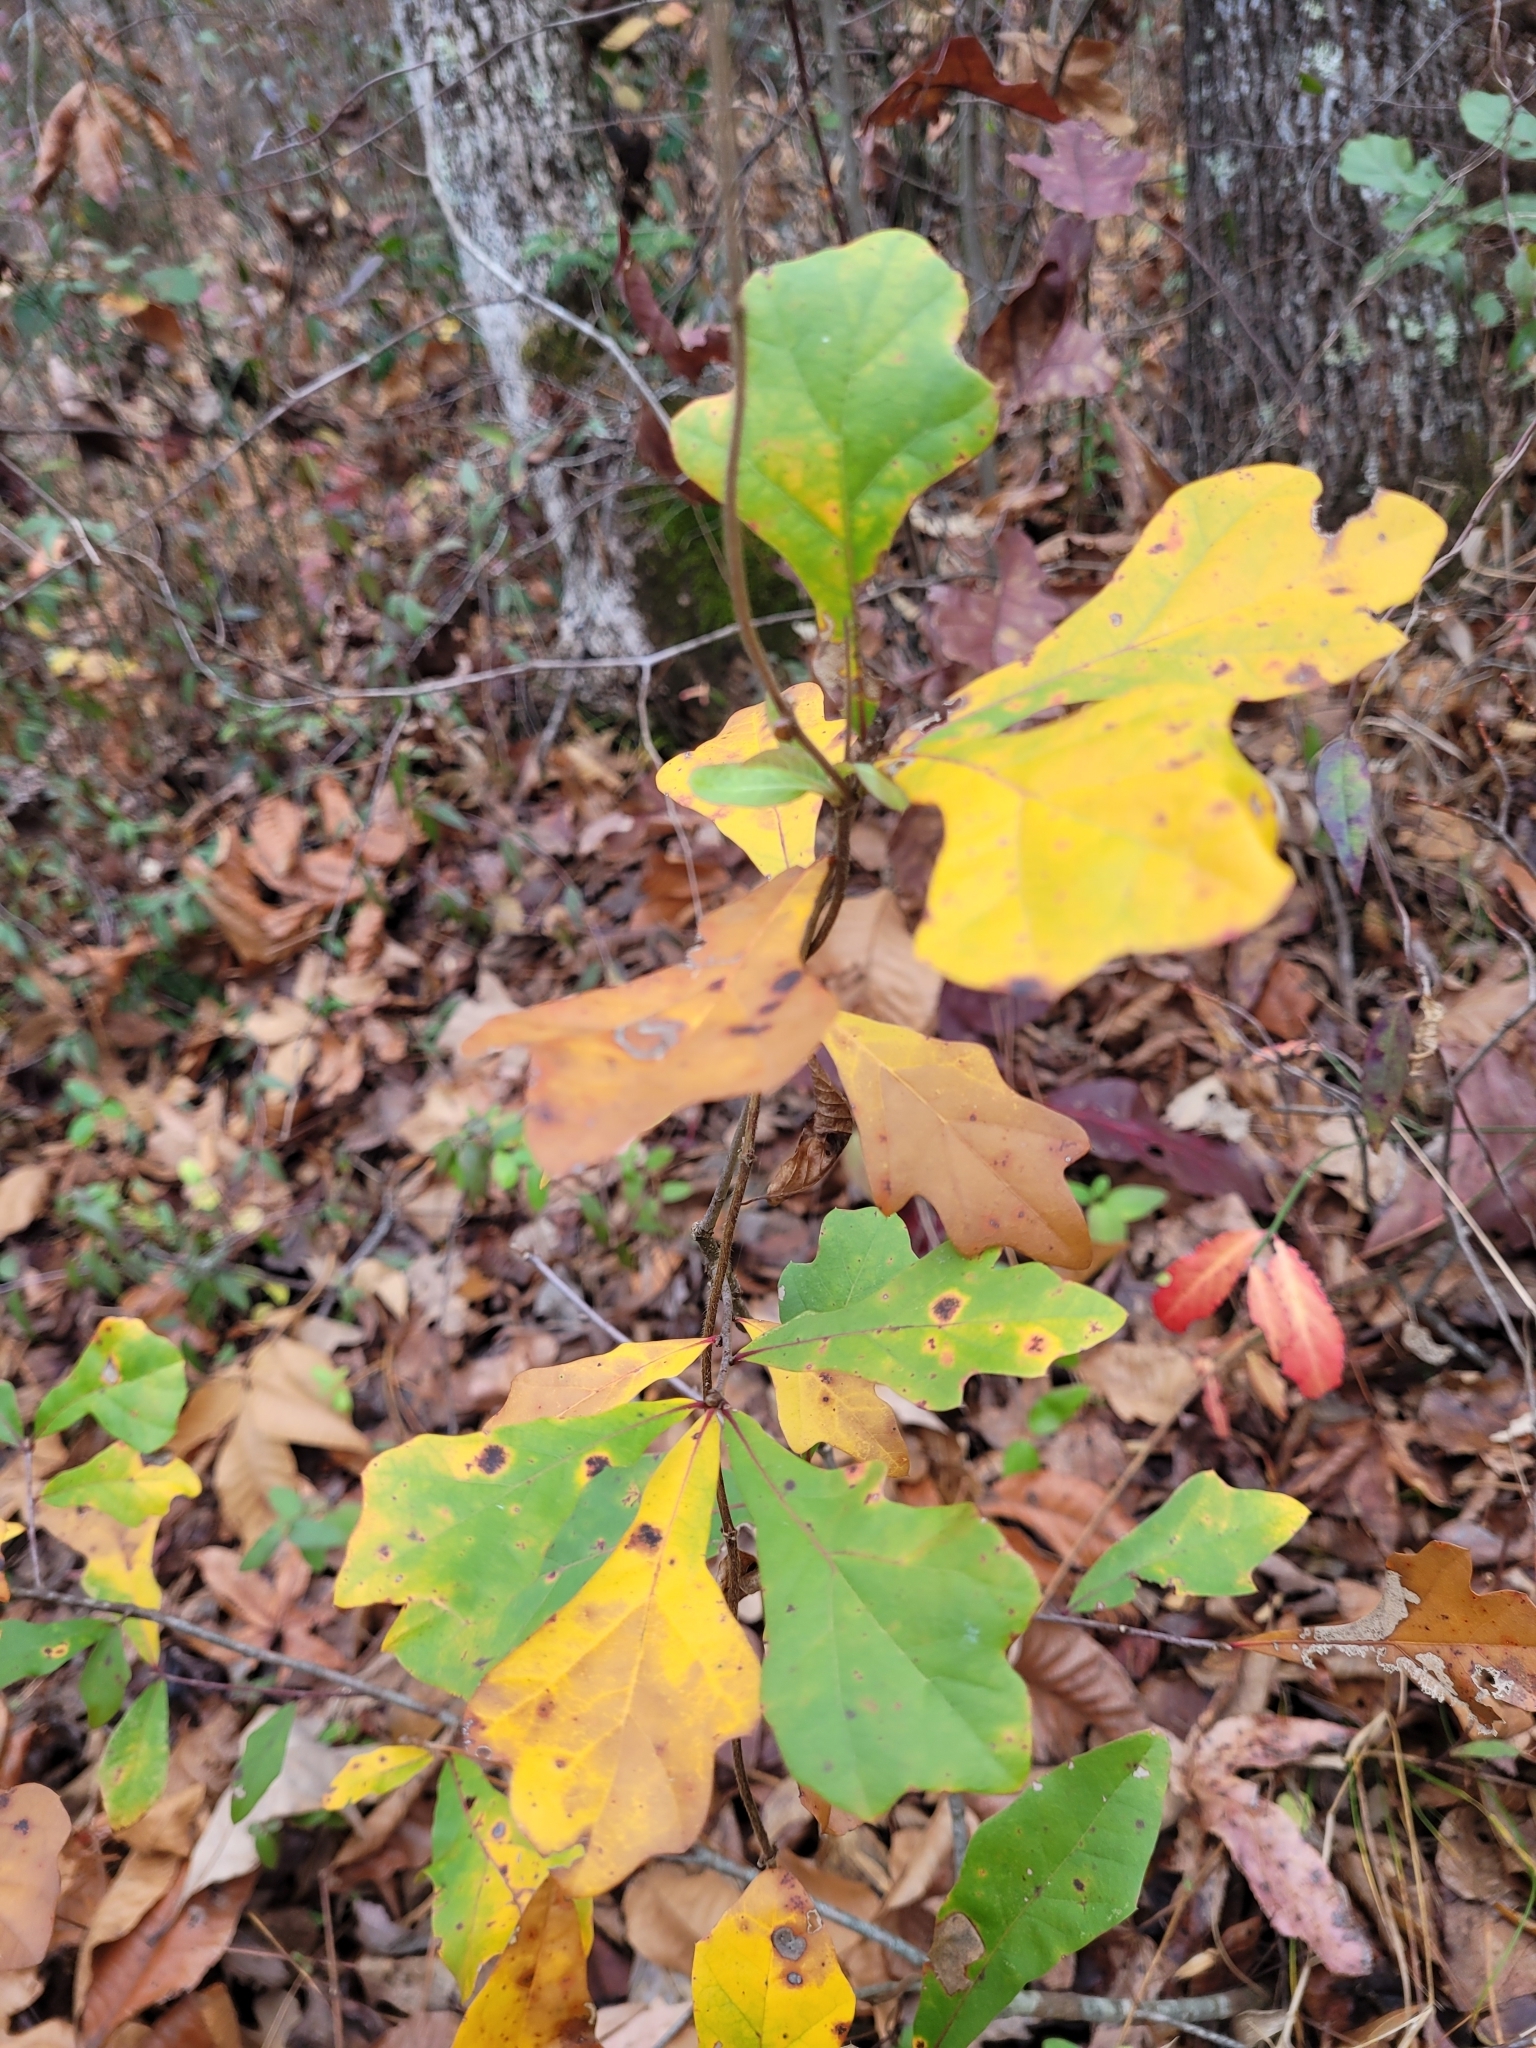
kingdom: Plantae
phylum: Tracheophyta
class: Magnoliopsida
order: Fagales
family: Fagaceae
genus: Quercus
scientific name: Quercus nigra
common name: Water oak
